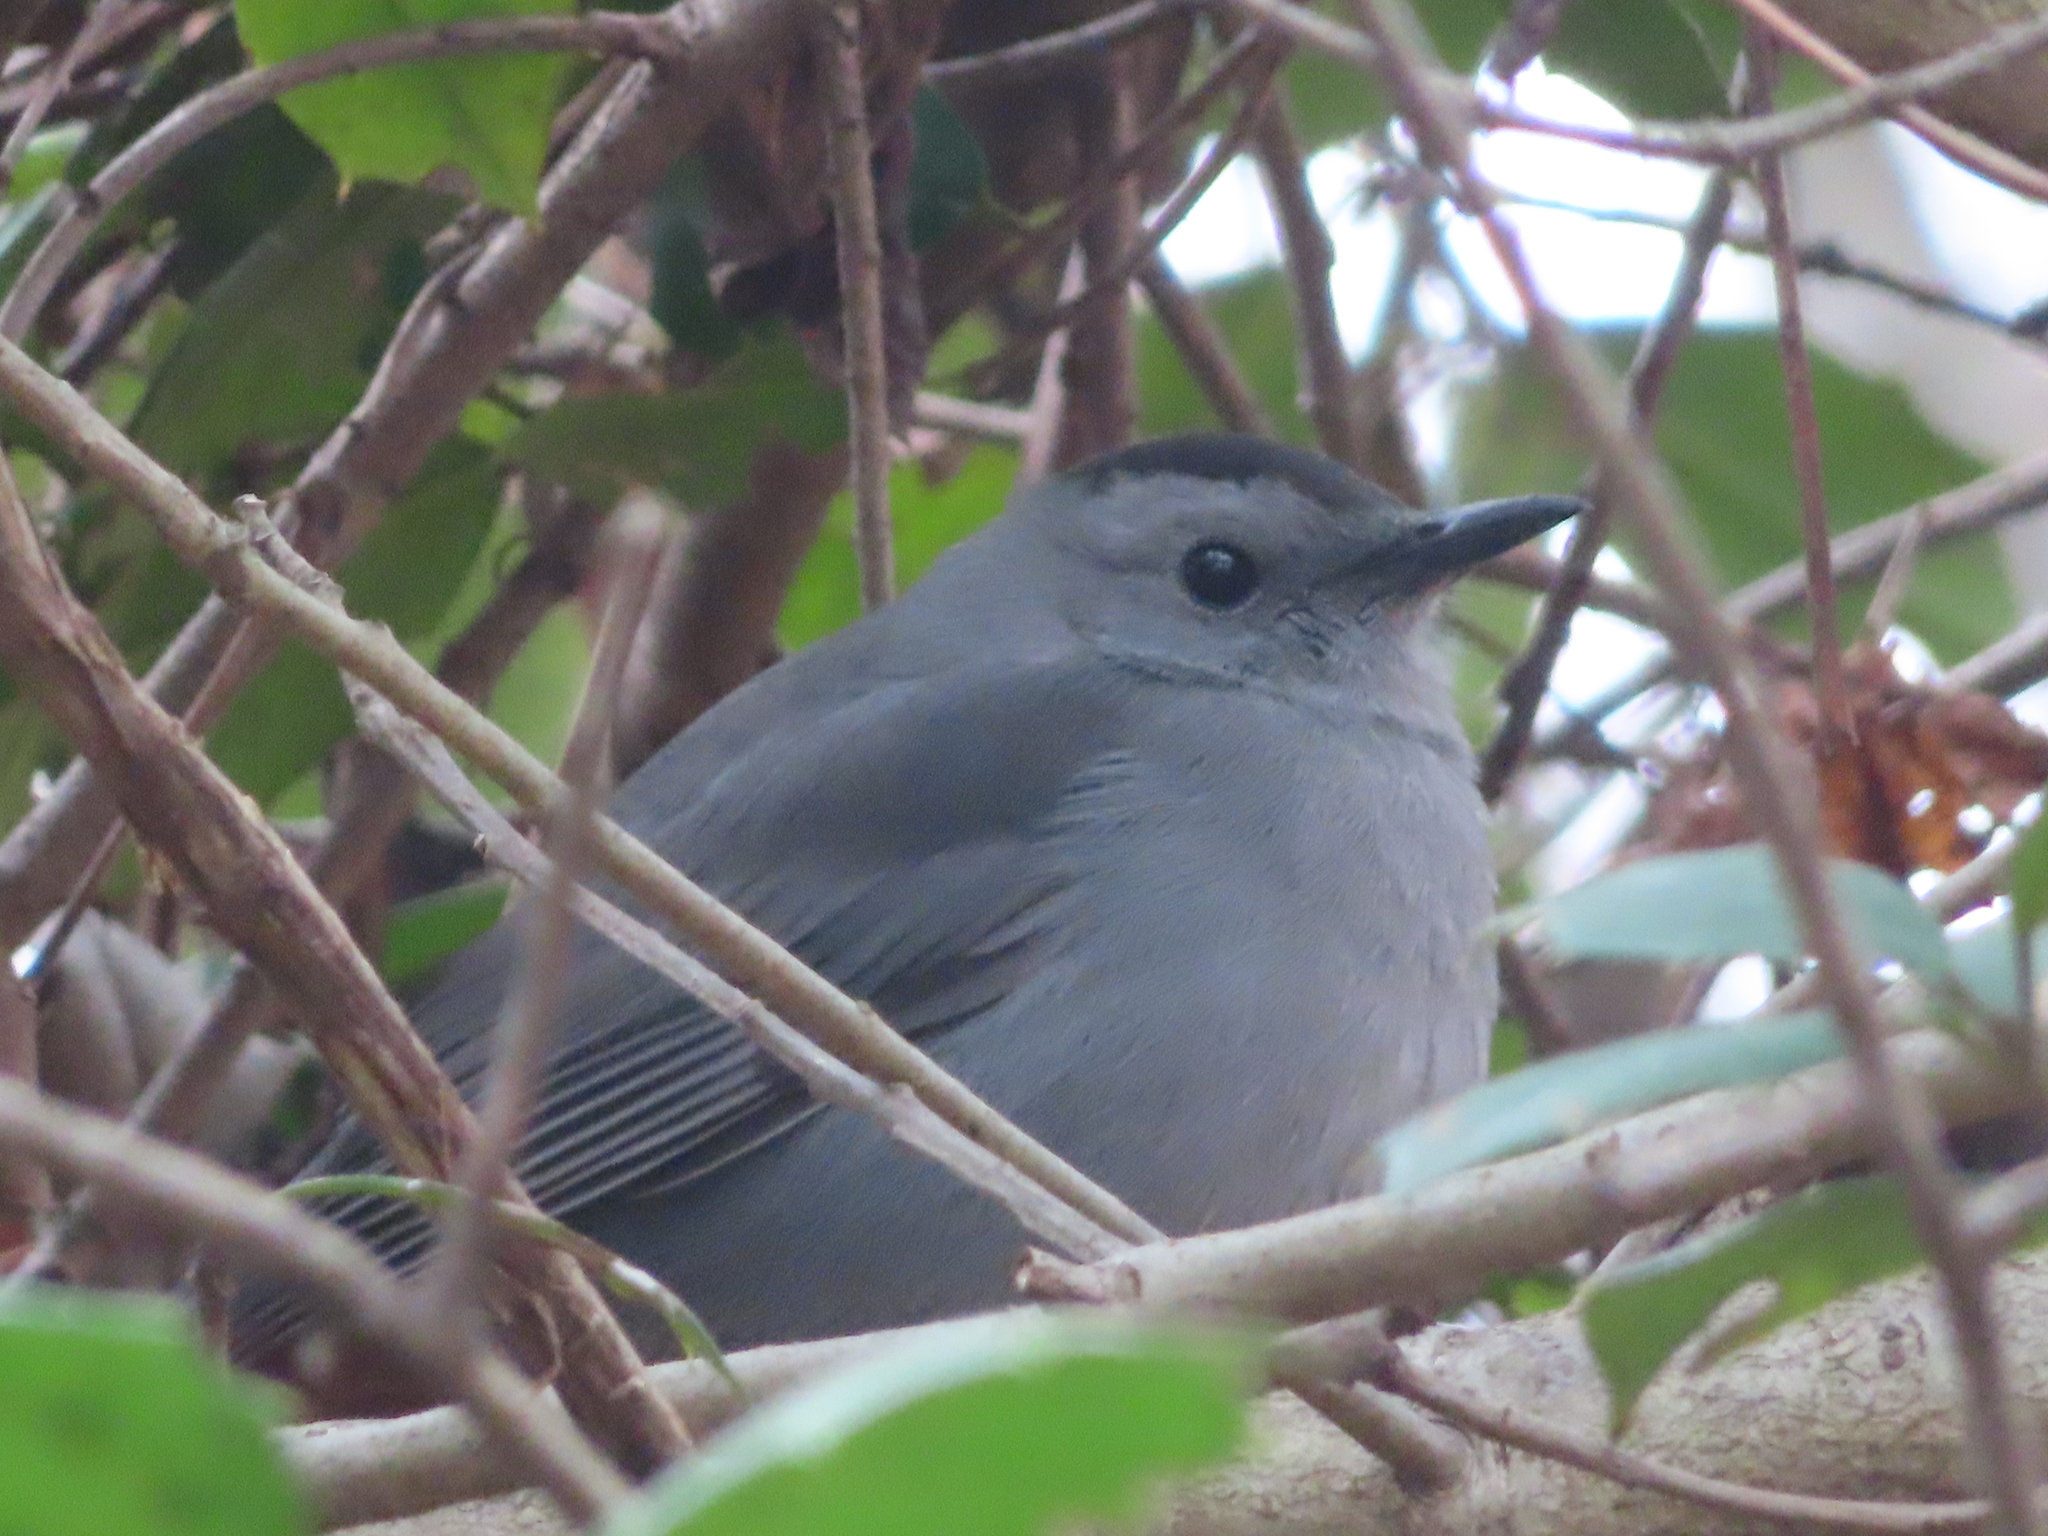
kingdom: Animalia
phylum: Chordata
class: Aves
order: Passeriformes
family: Mimidae
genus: Dumetella
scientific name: Dumetella carolinensis
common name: Gray catbird
